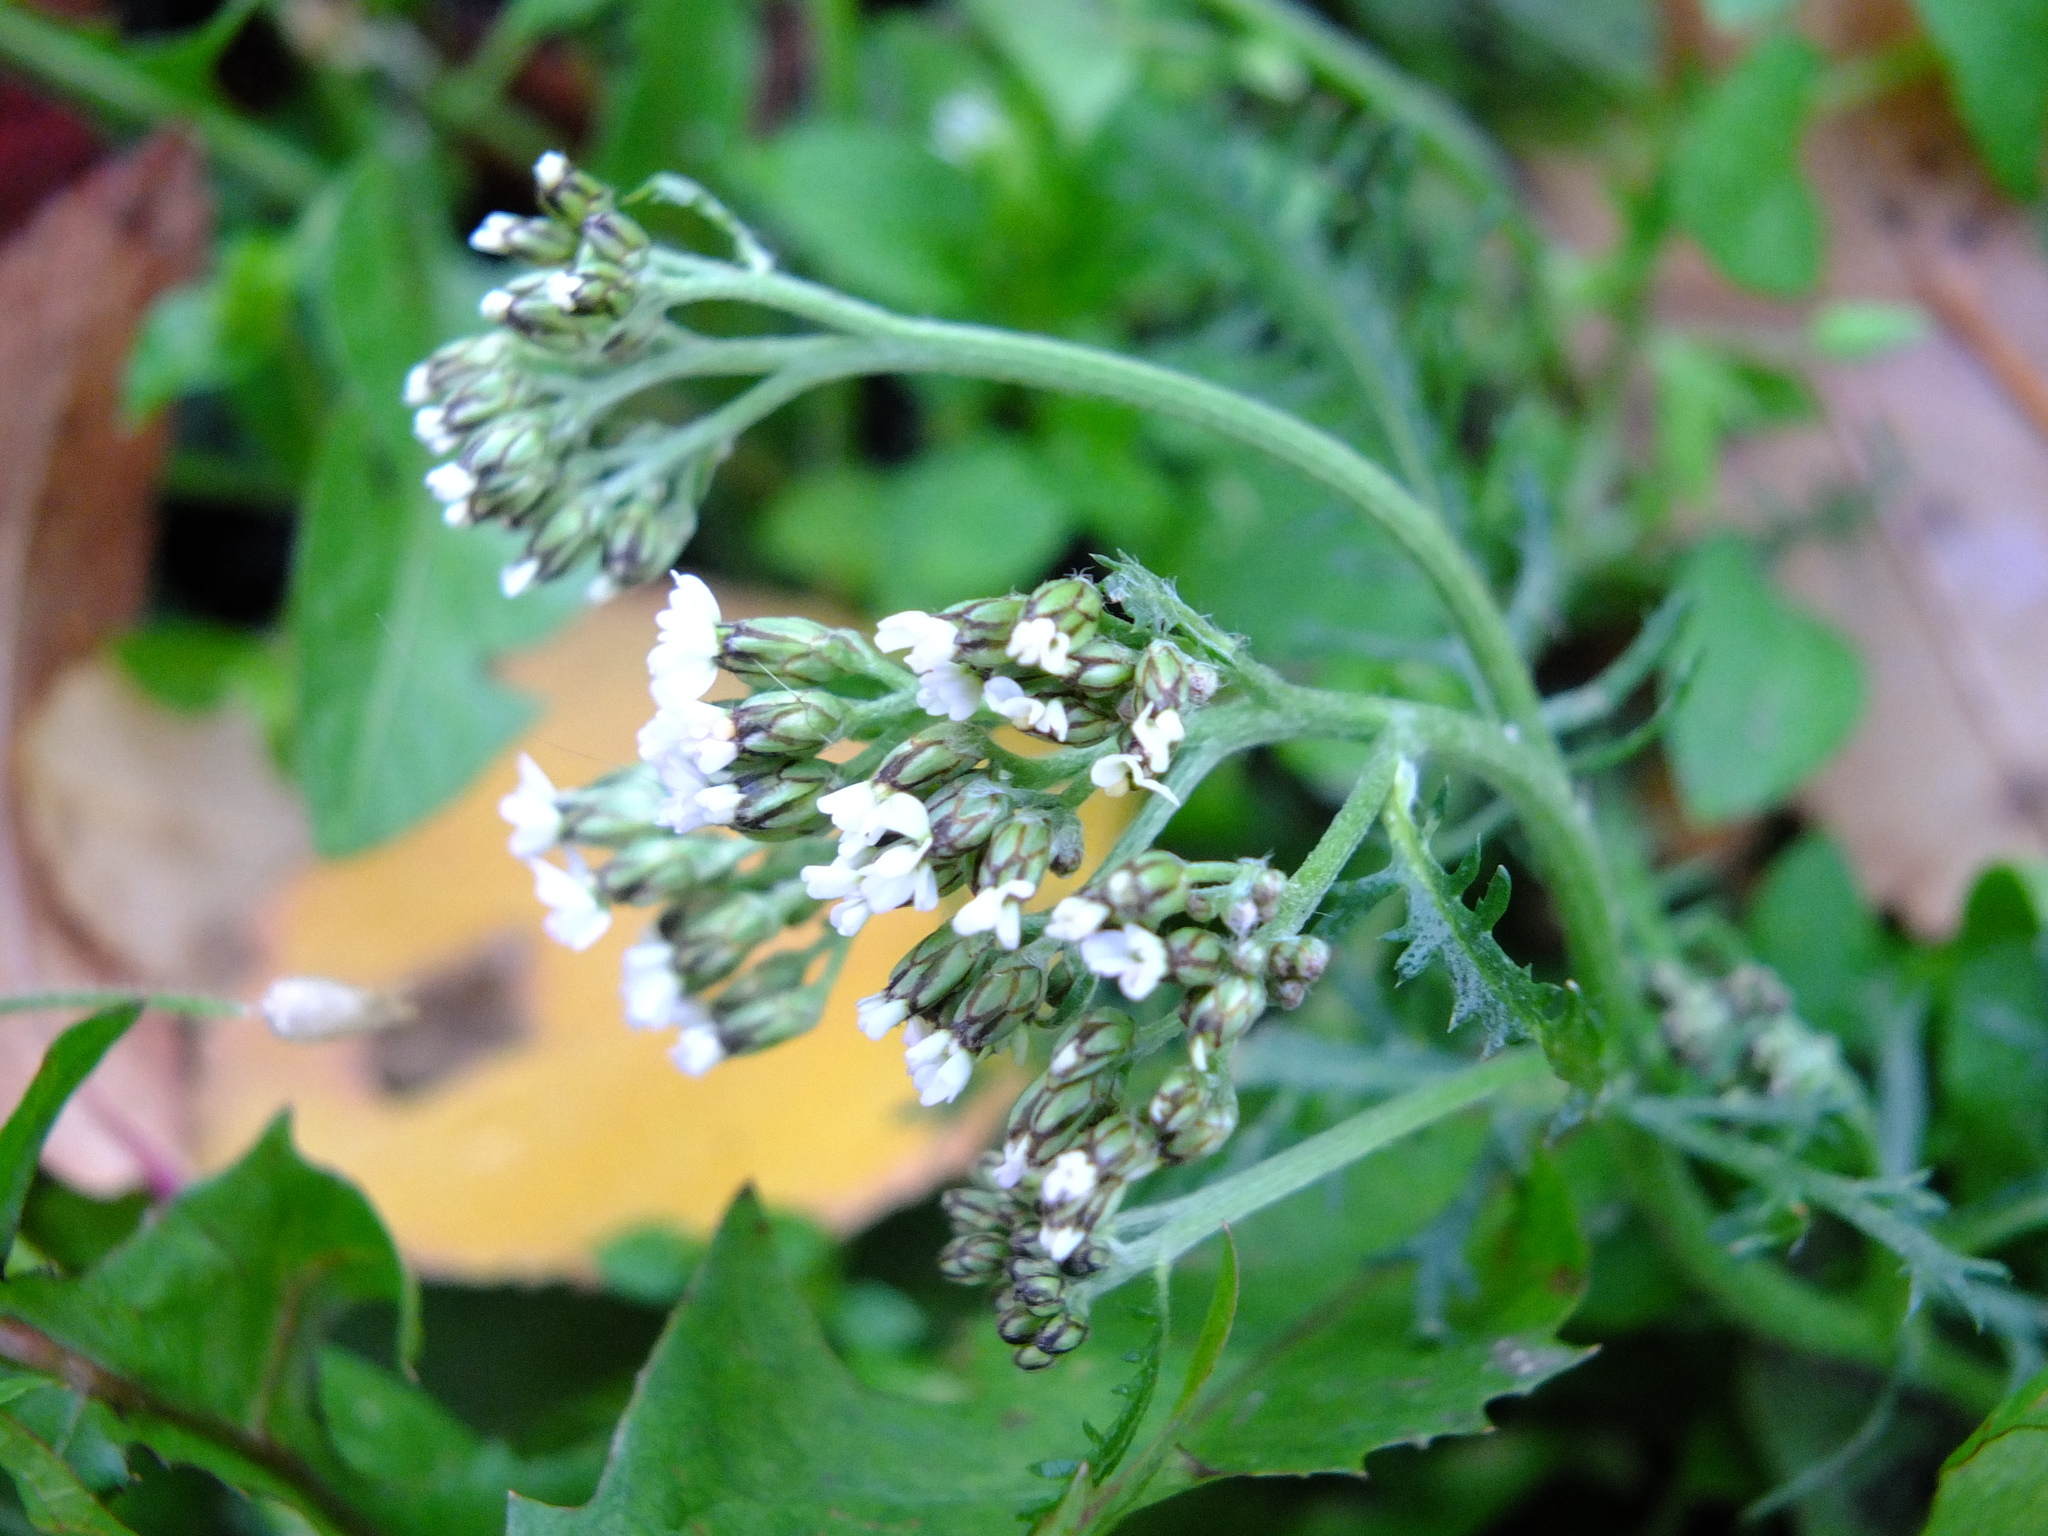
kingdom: Plantae
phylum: Tracheophyta
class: Magnoliopsida
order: Asterales
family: Asteraceae
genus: Achillea
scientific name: Achillea millefolium
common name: Yarrow
